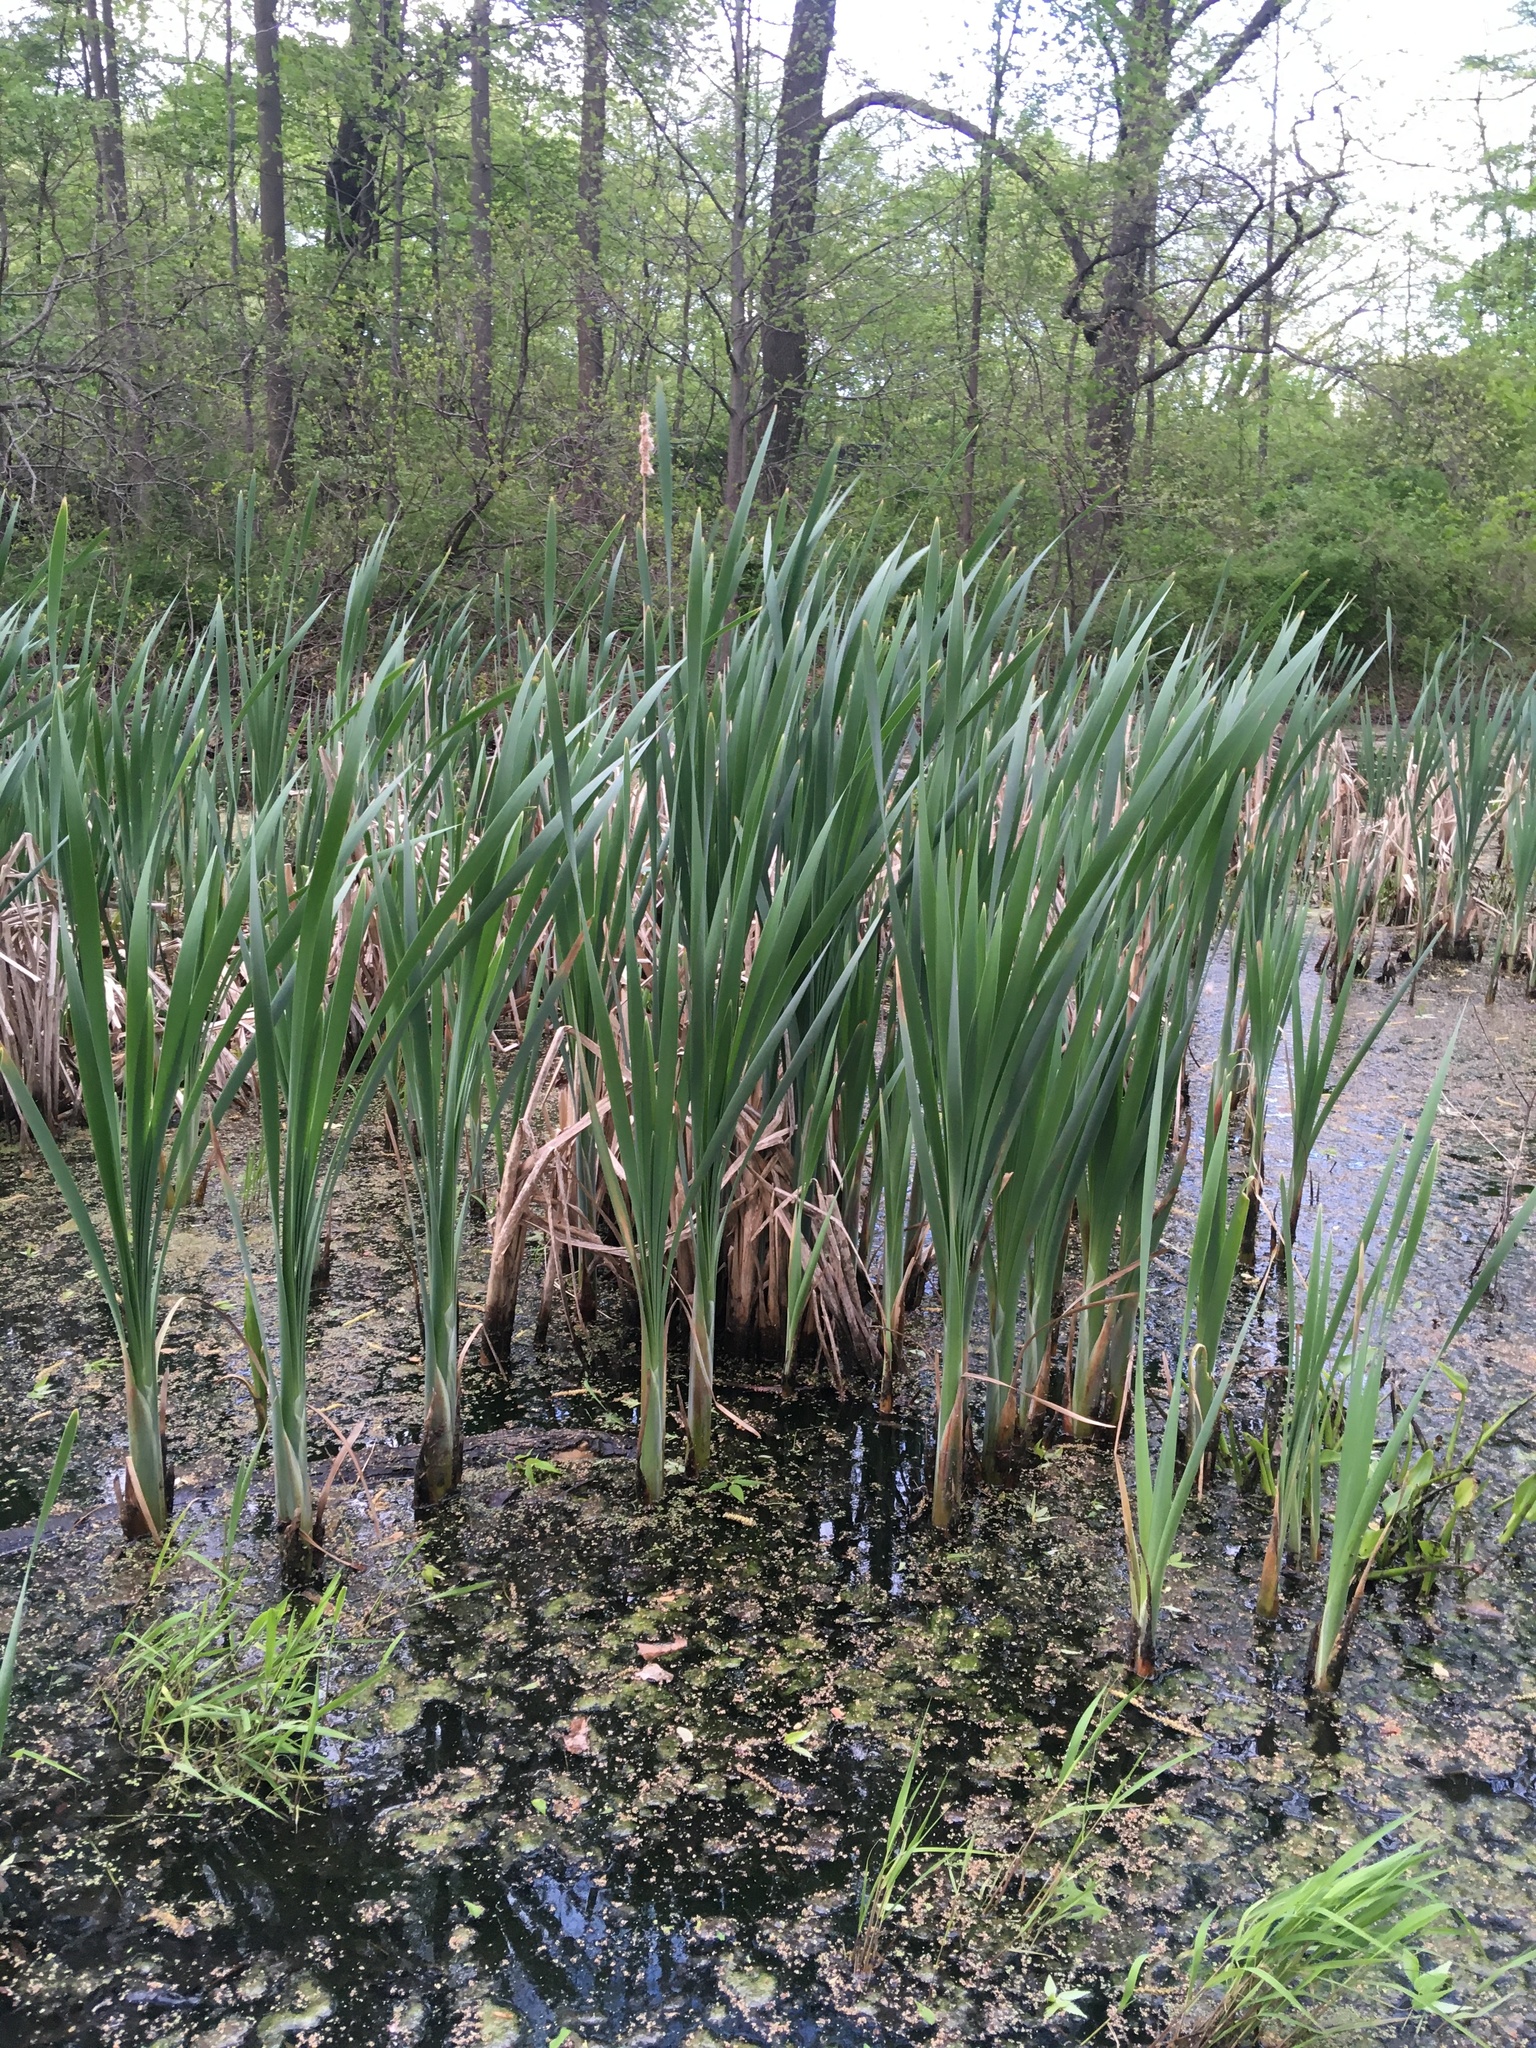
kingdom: Plantae
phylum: Tracheophyta
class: Liliopsida
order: Poales
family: Typhaceae
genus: Typha
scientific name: Typha latifolia
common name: Broadleaf cattail
